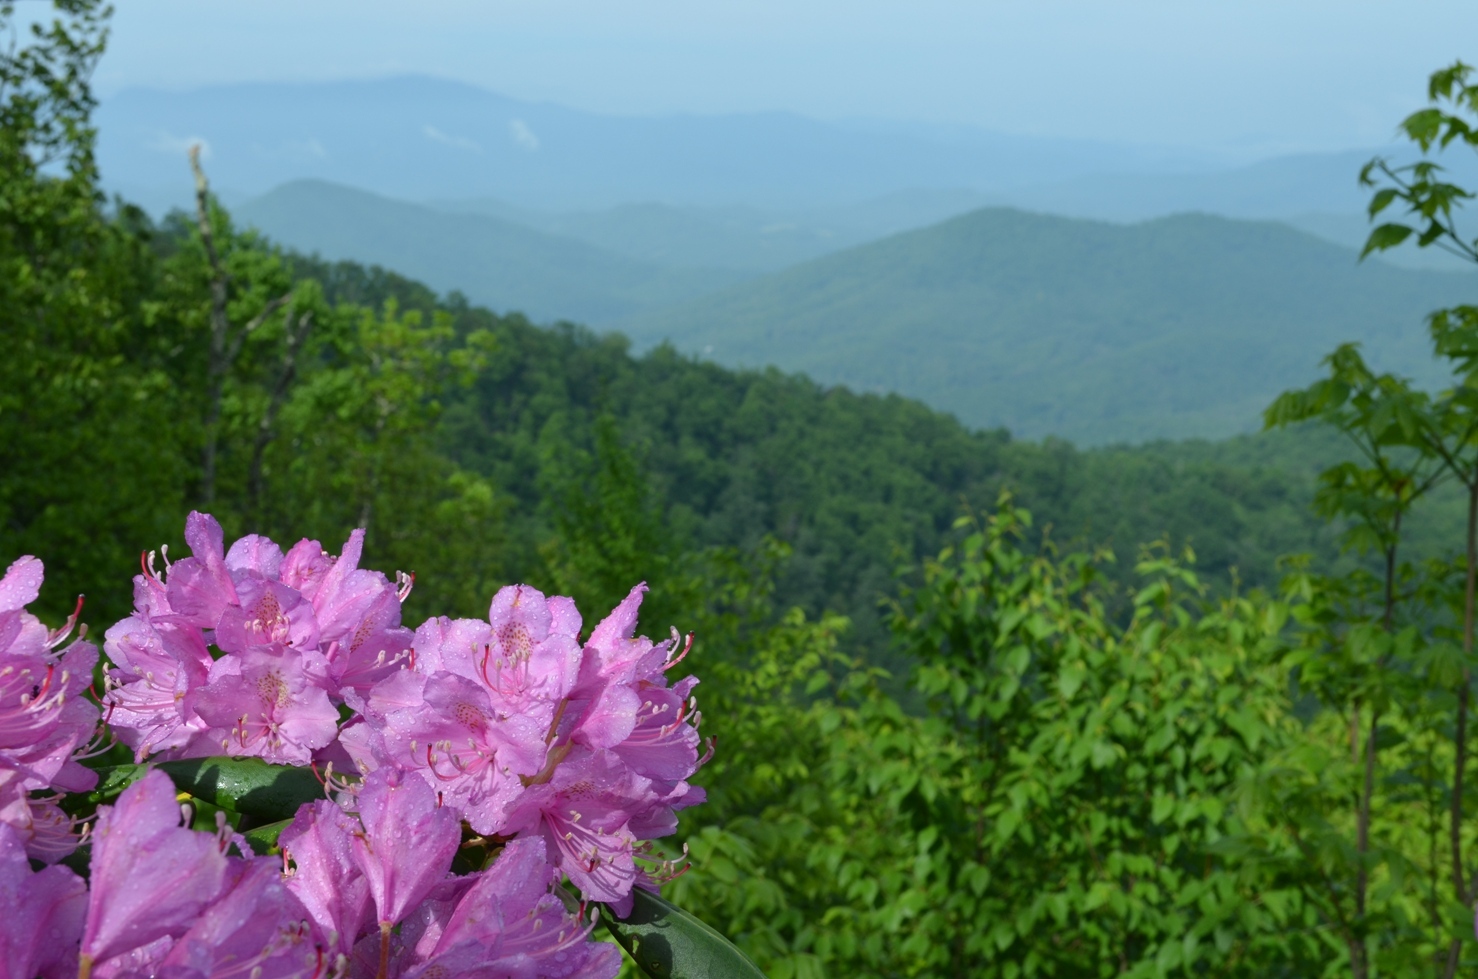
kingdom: Plantae
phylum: Tracheophyta
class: Magnoliopsida
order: Ericales
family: Ericaceae
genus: Rhododendron
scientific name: Rhododendron catawbiense
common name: Catawba rhododendron
